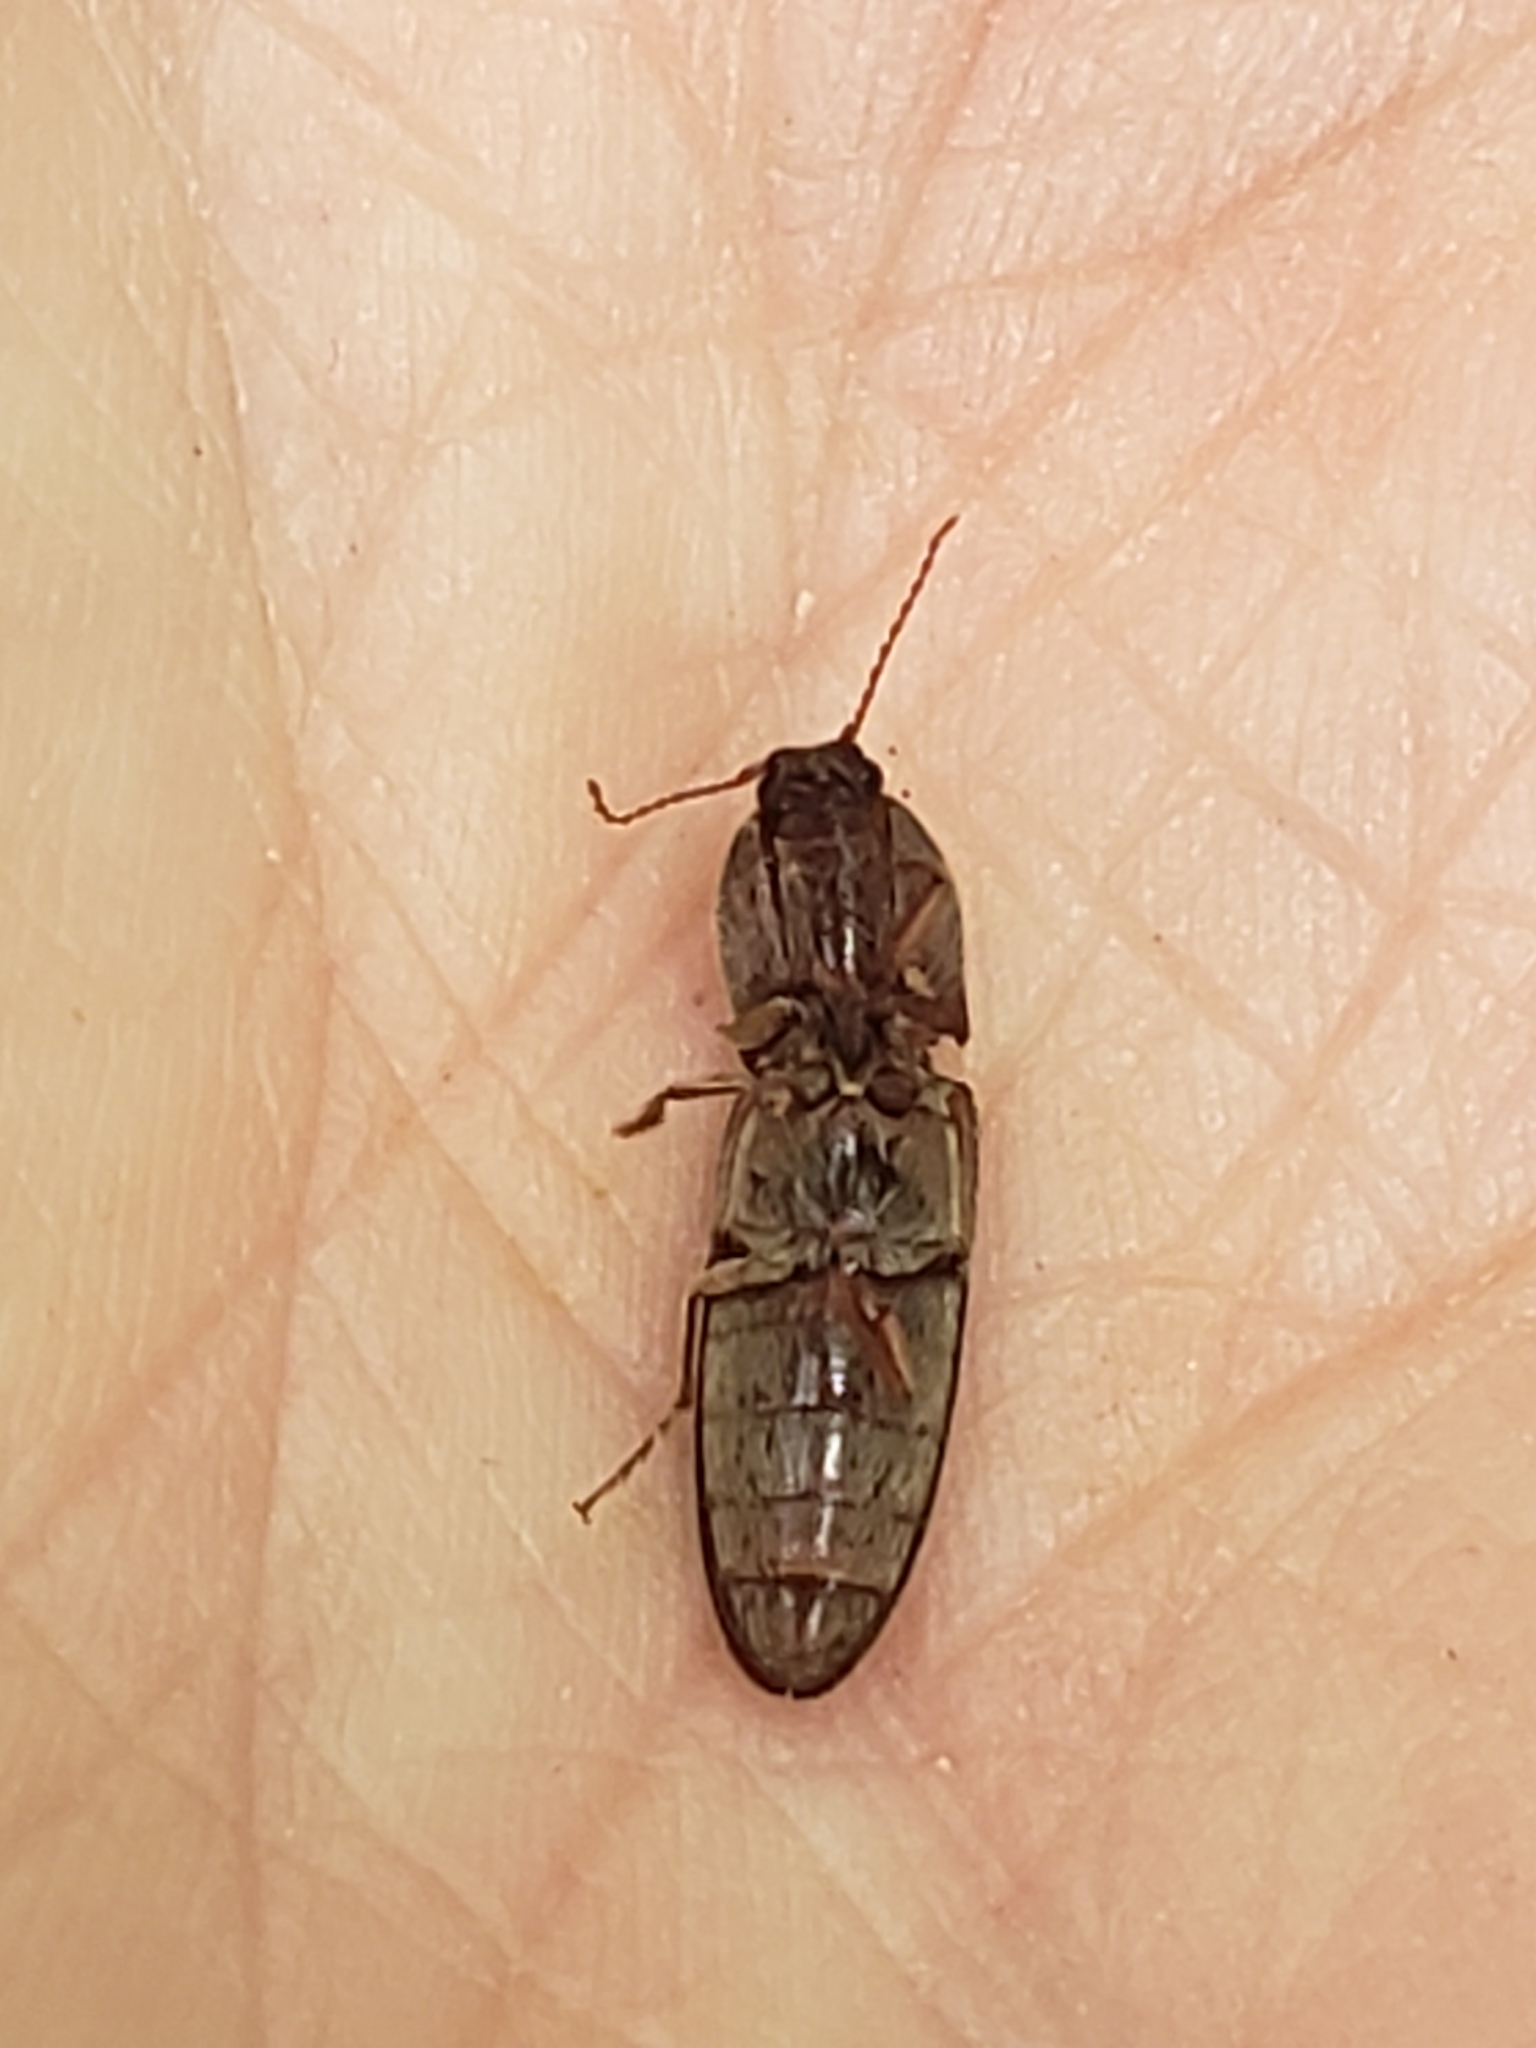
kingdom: Animalia
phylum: Arthropoda
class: Insecta
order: Coleoptera
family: Elateridae
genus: Gambrinus
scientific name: Gambrinus griseus
